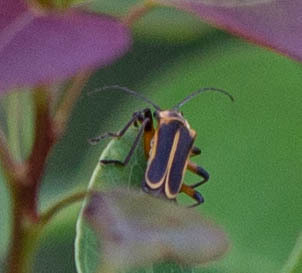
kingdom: Animalia
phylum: Arthropoda
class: Insecta
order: Coleoptera
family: Cantharidae
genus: Chauliognathus
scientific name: Chauliognathus marginatus
